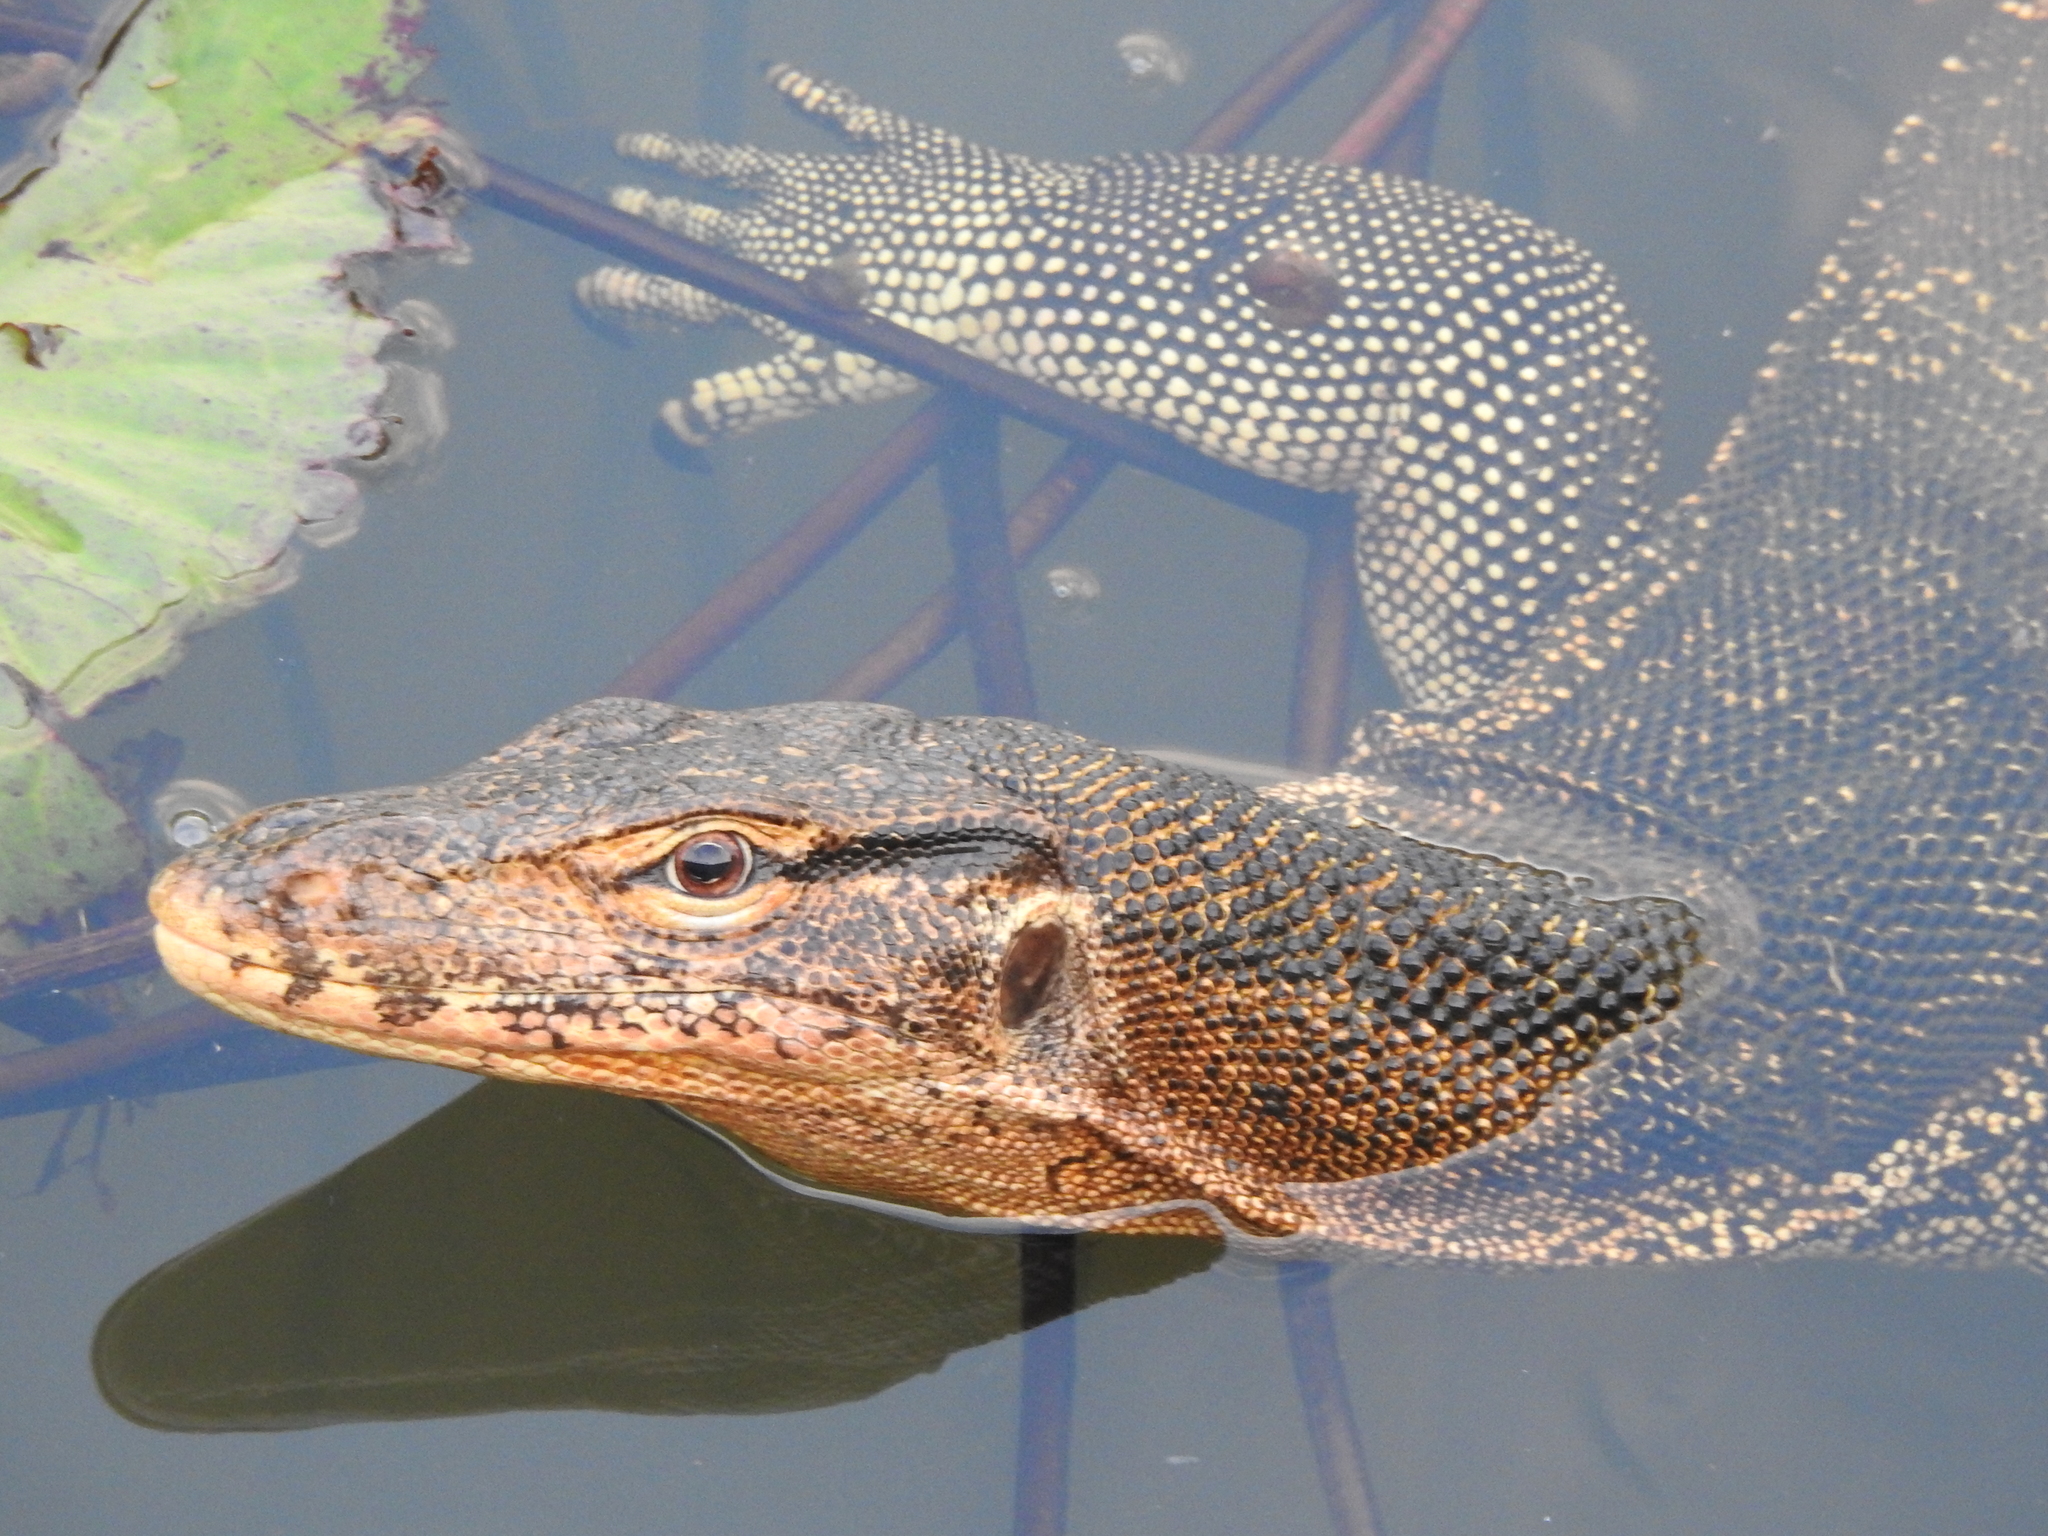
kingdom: Animalia
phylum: Chordata
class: Squamata
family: Varanidae
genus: Varanus
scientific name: Varanus salvator
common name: Common water monitor
